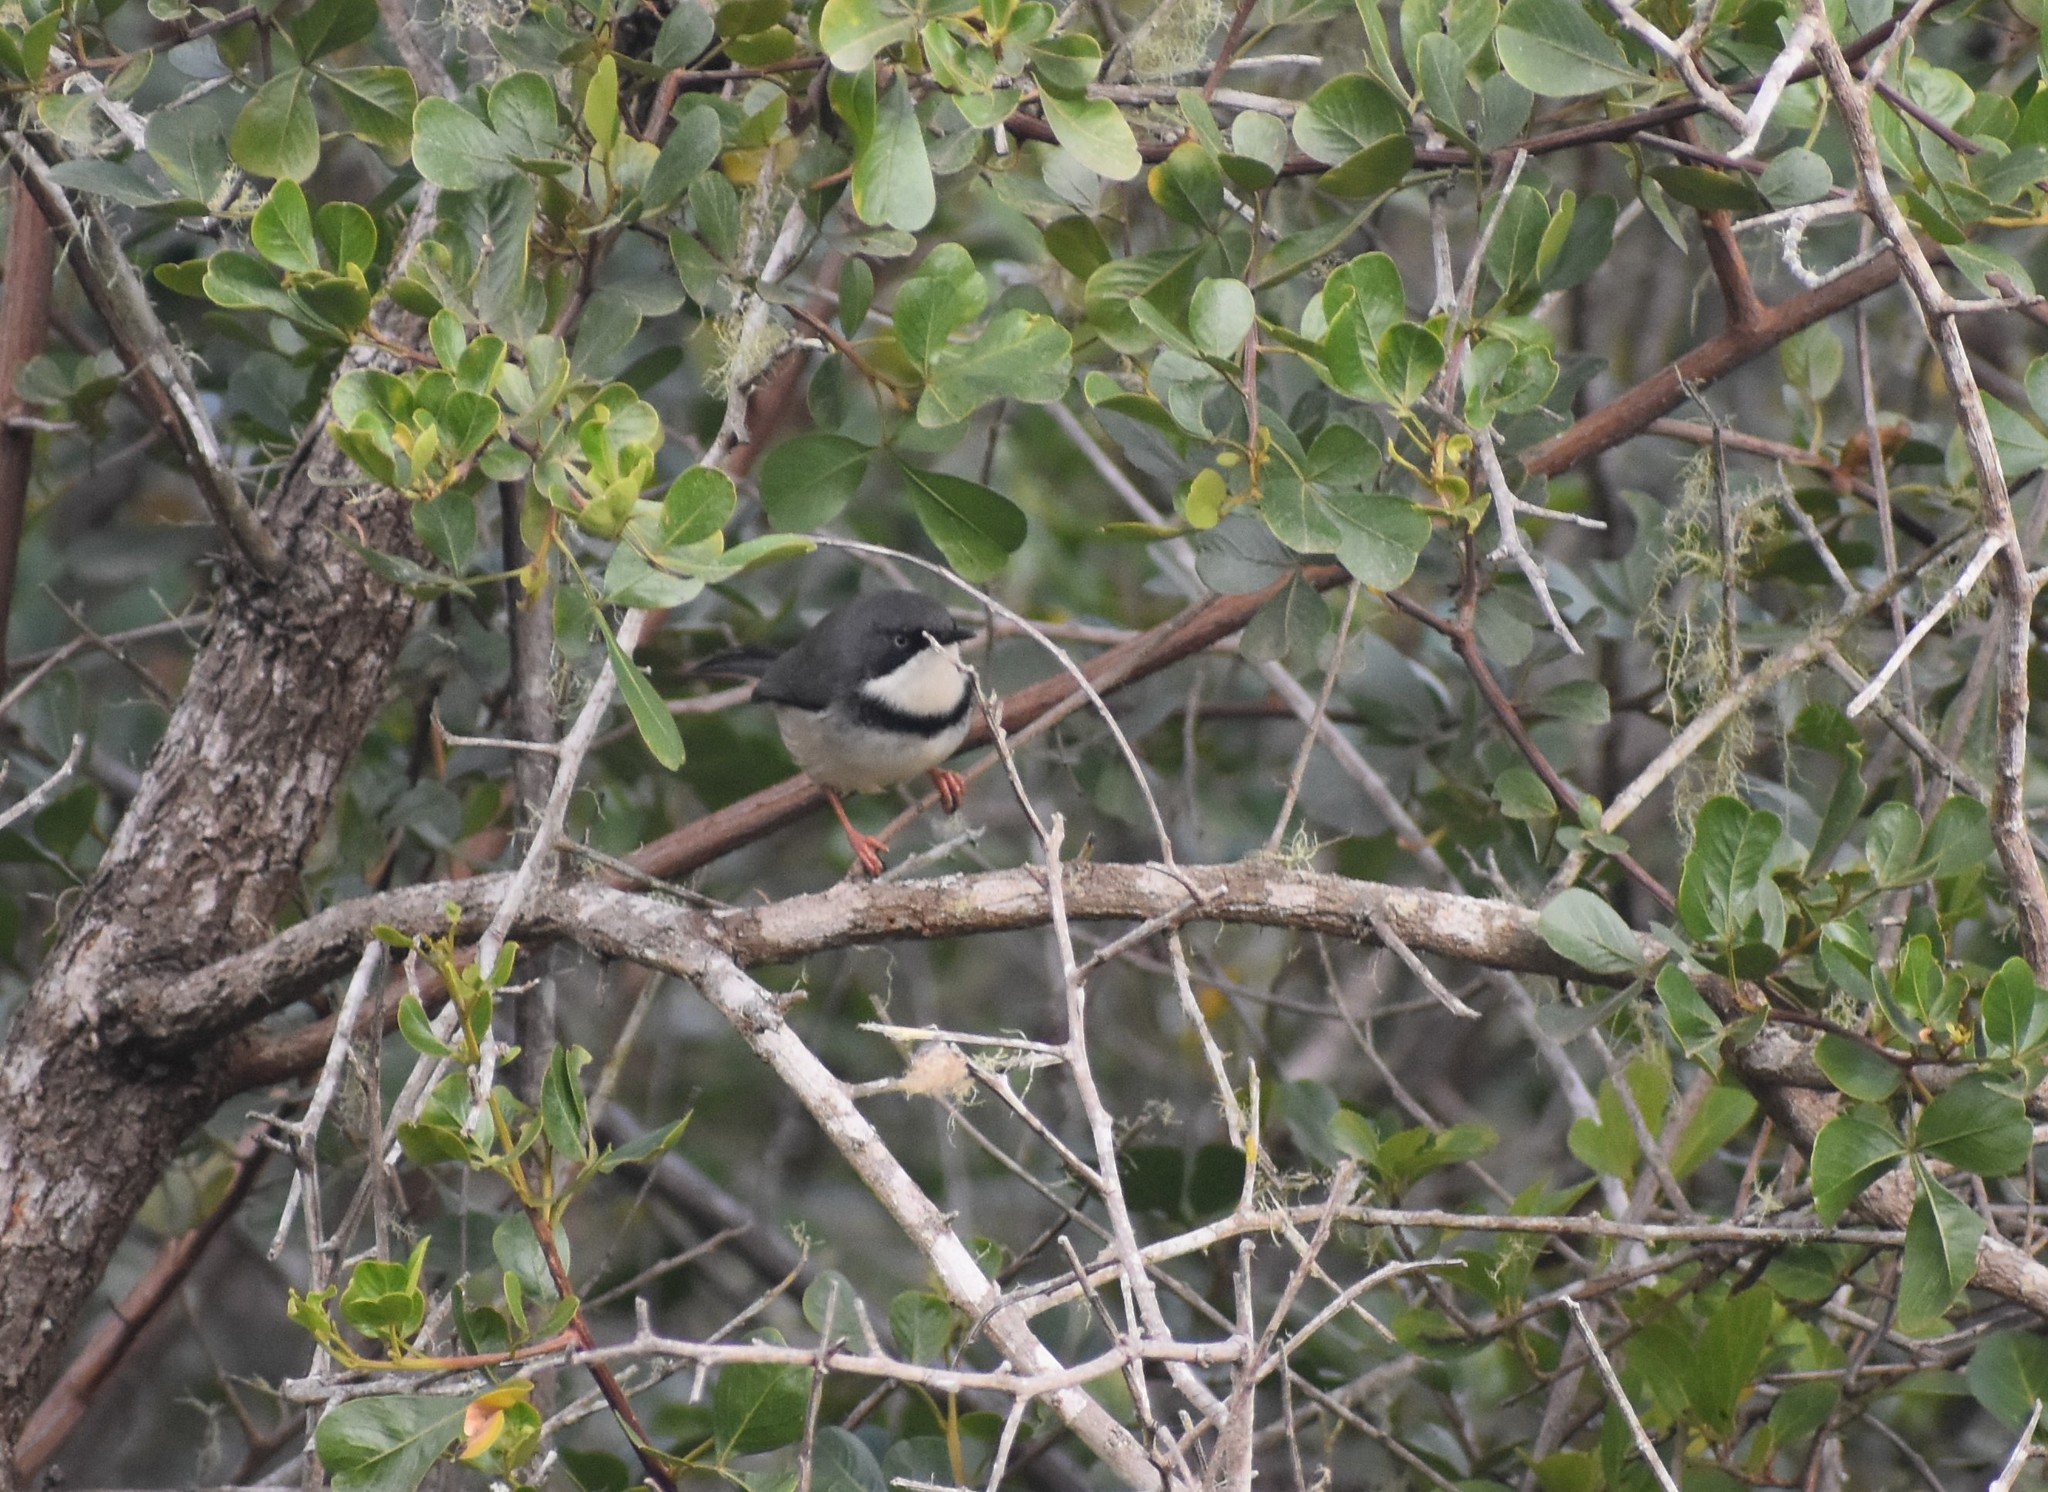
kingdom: Animalia
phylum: Chordata
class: Aves
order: Passeriformes
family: Cisticolidae
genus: Apalis
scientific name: Apalis thoracica
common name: Bar-throated apalis
